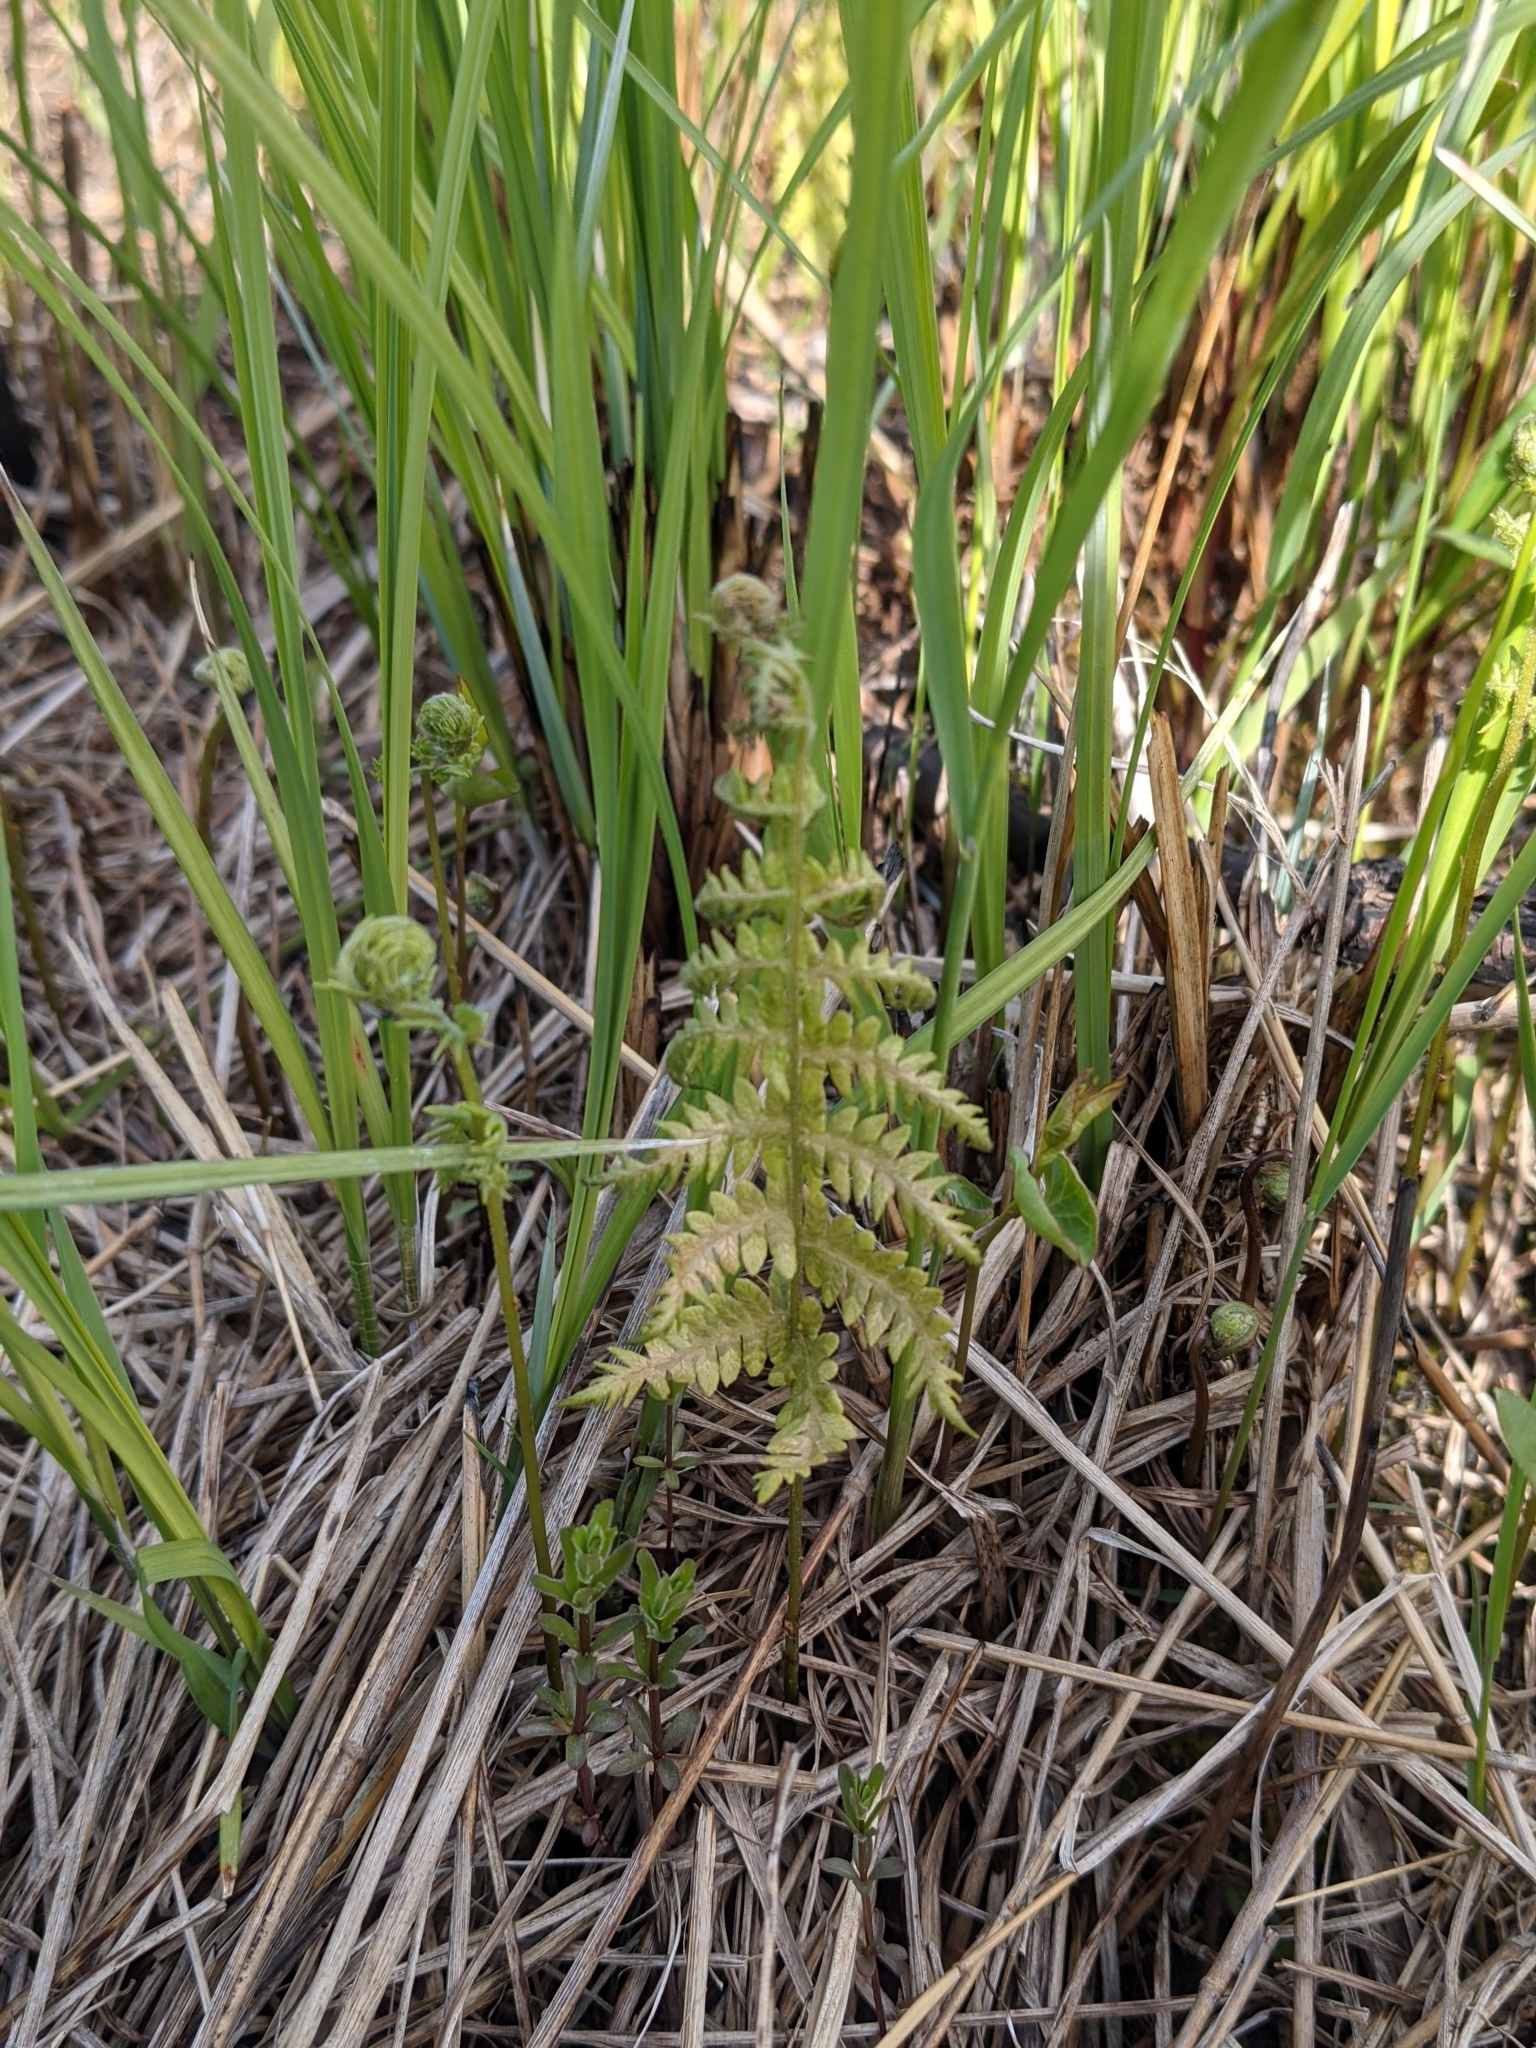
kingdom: Plantae
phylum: Tracheophyta
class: Polypodiopsida
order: Polypodiales
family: Thelypteridaceae
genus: Thelypteris
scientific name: Thelypteris palustris
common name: Marsh fern
